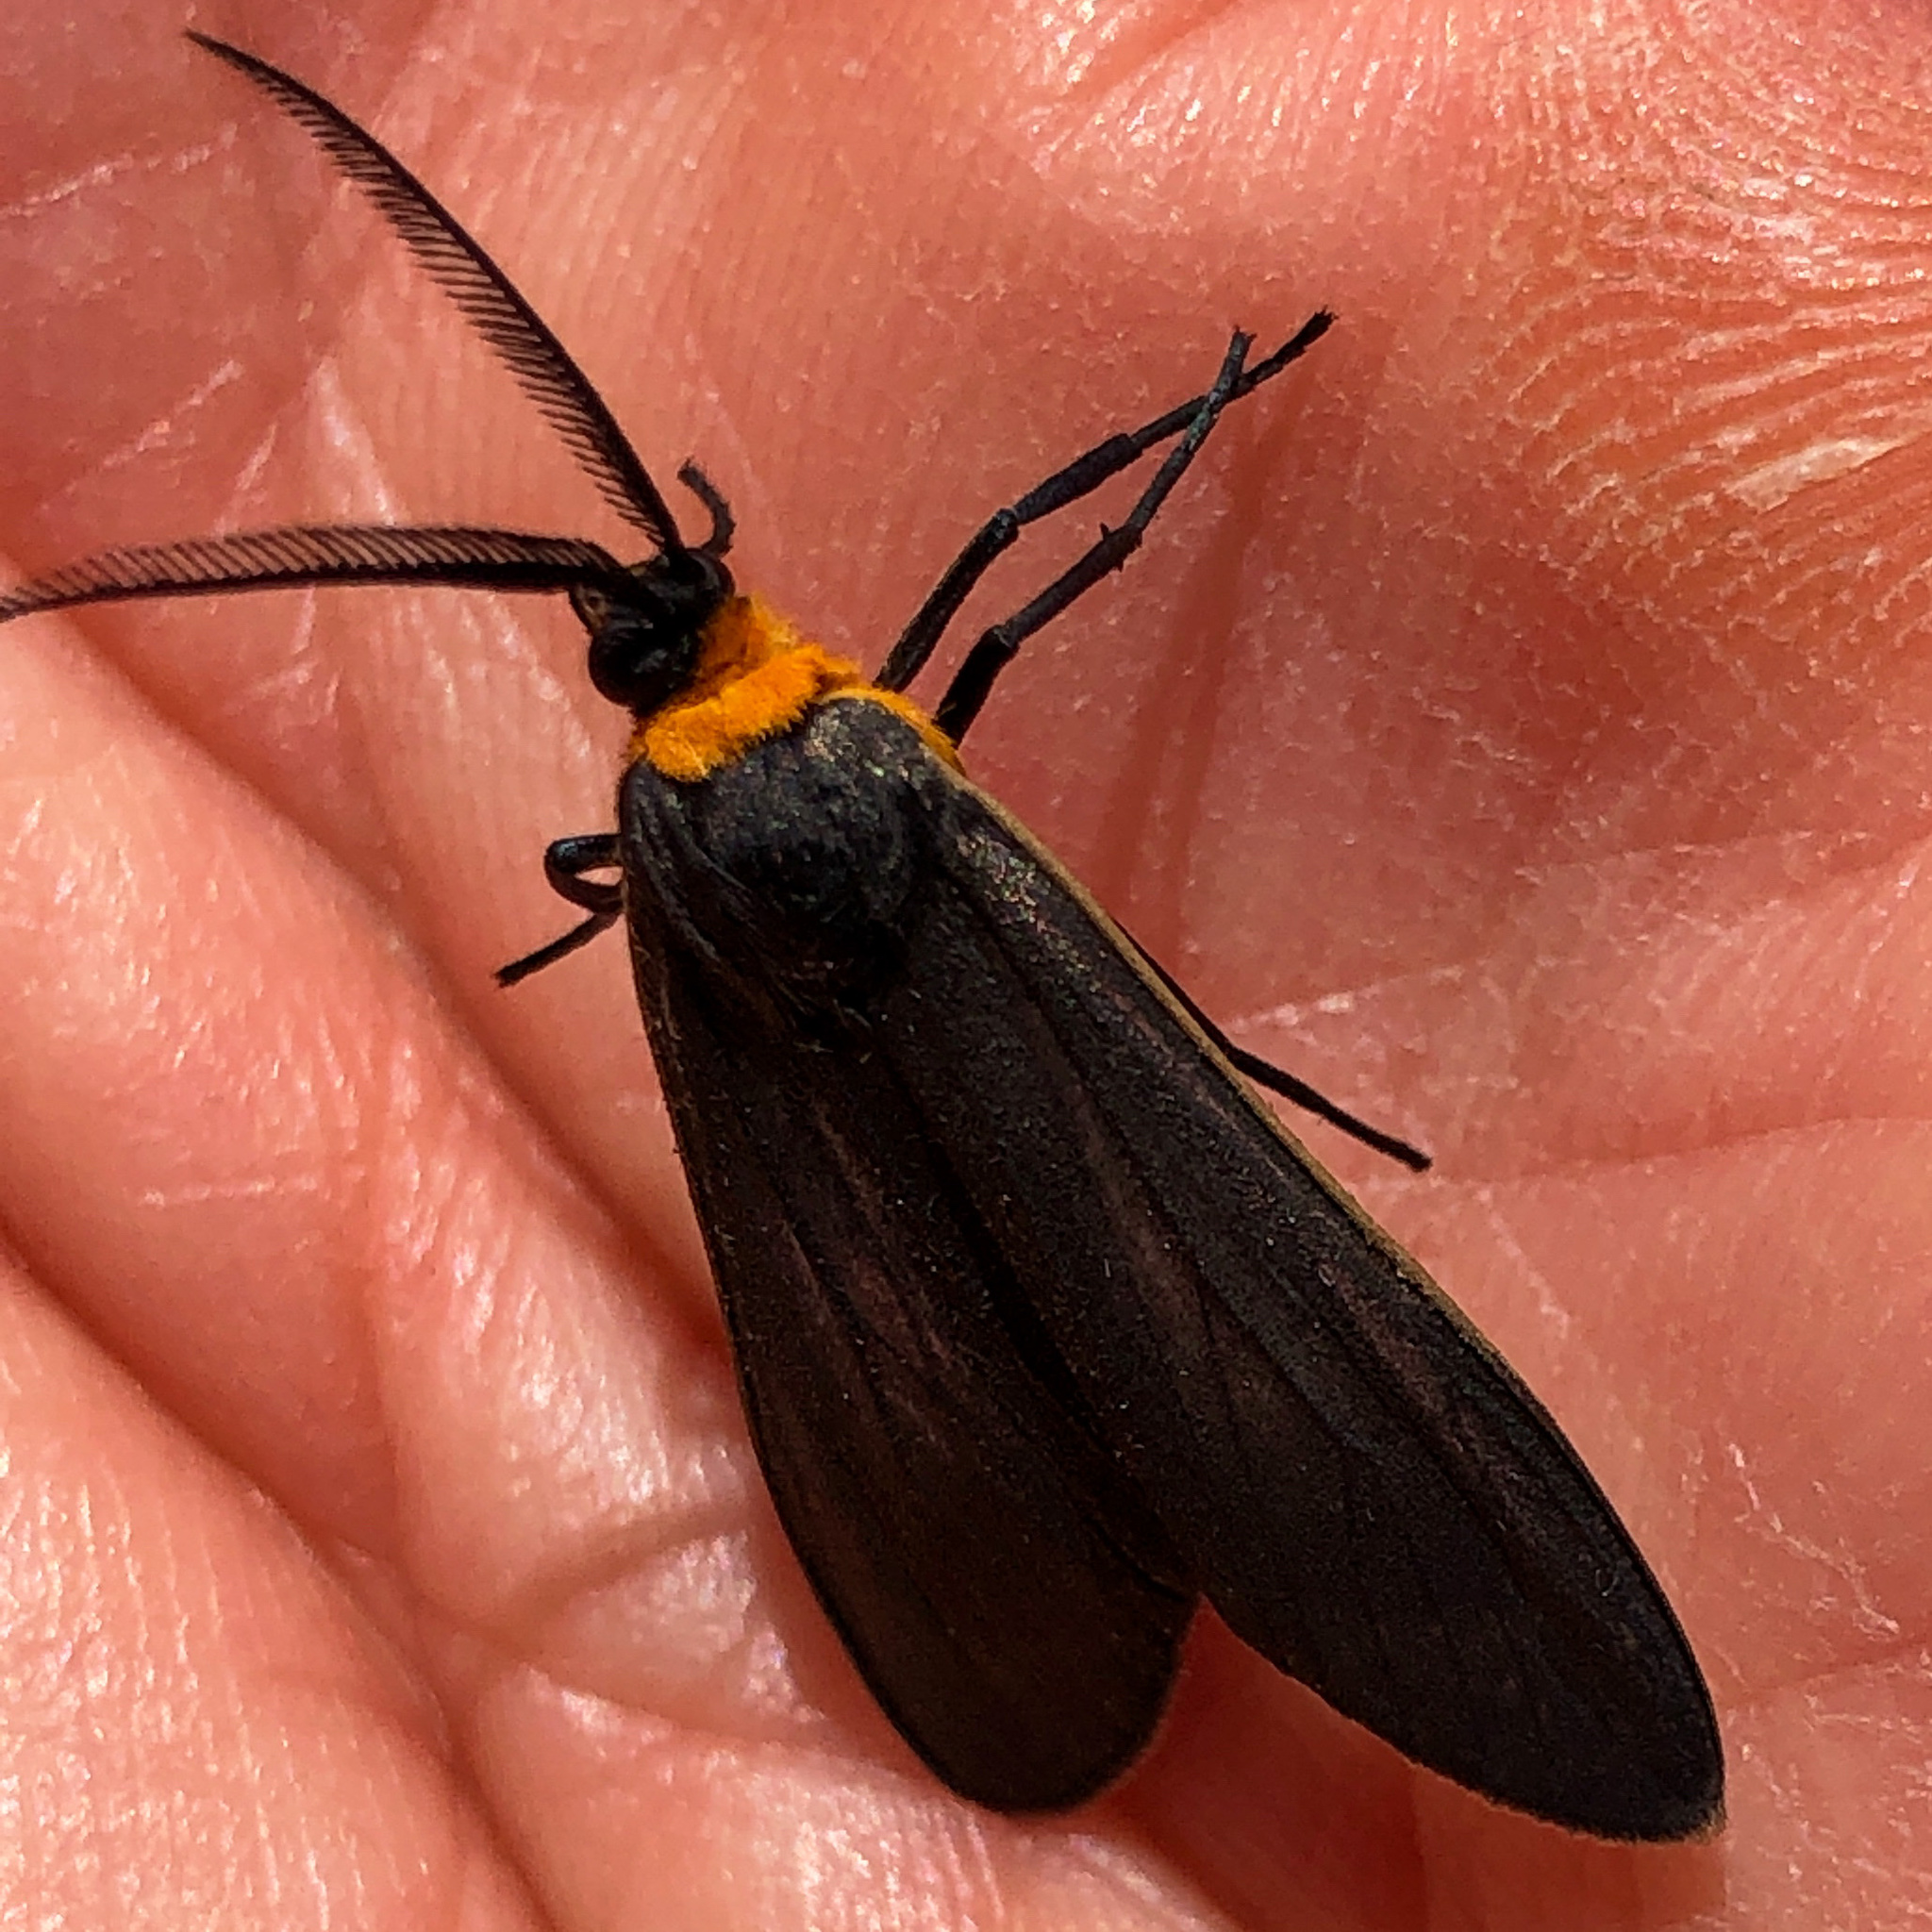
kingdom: Animalia
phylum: Arthropoda
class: Insecta
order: Lepidoptera
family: Erebidae
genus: Cisseps
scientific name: Cisseps fulvicollis
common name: Yellow-collared scape moth
